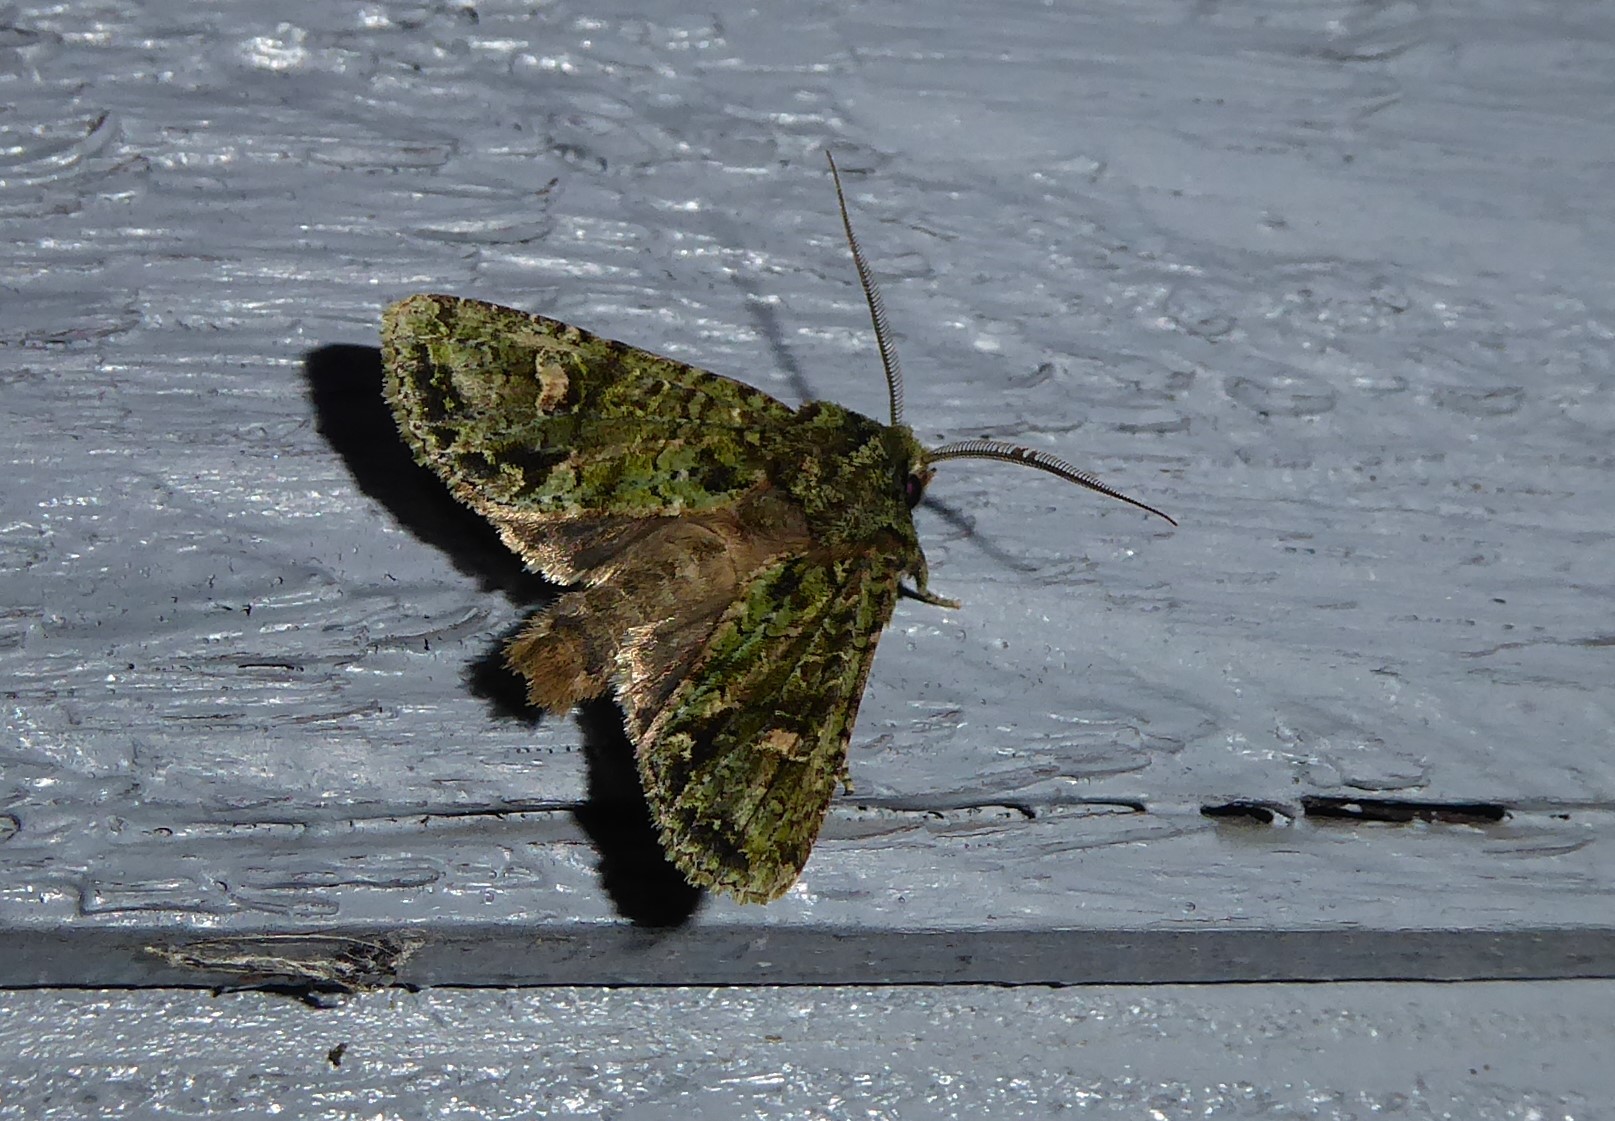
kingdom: Animalia
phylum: Arthropoda
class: Insecta
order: Lepidoptera
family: Noctuidae
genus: Ichneutica
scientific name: Ichneutica
